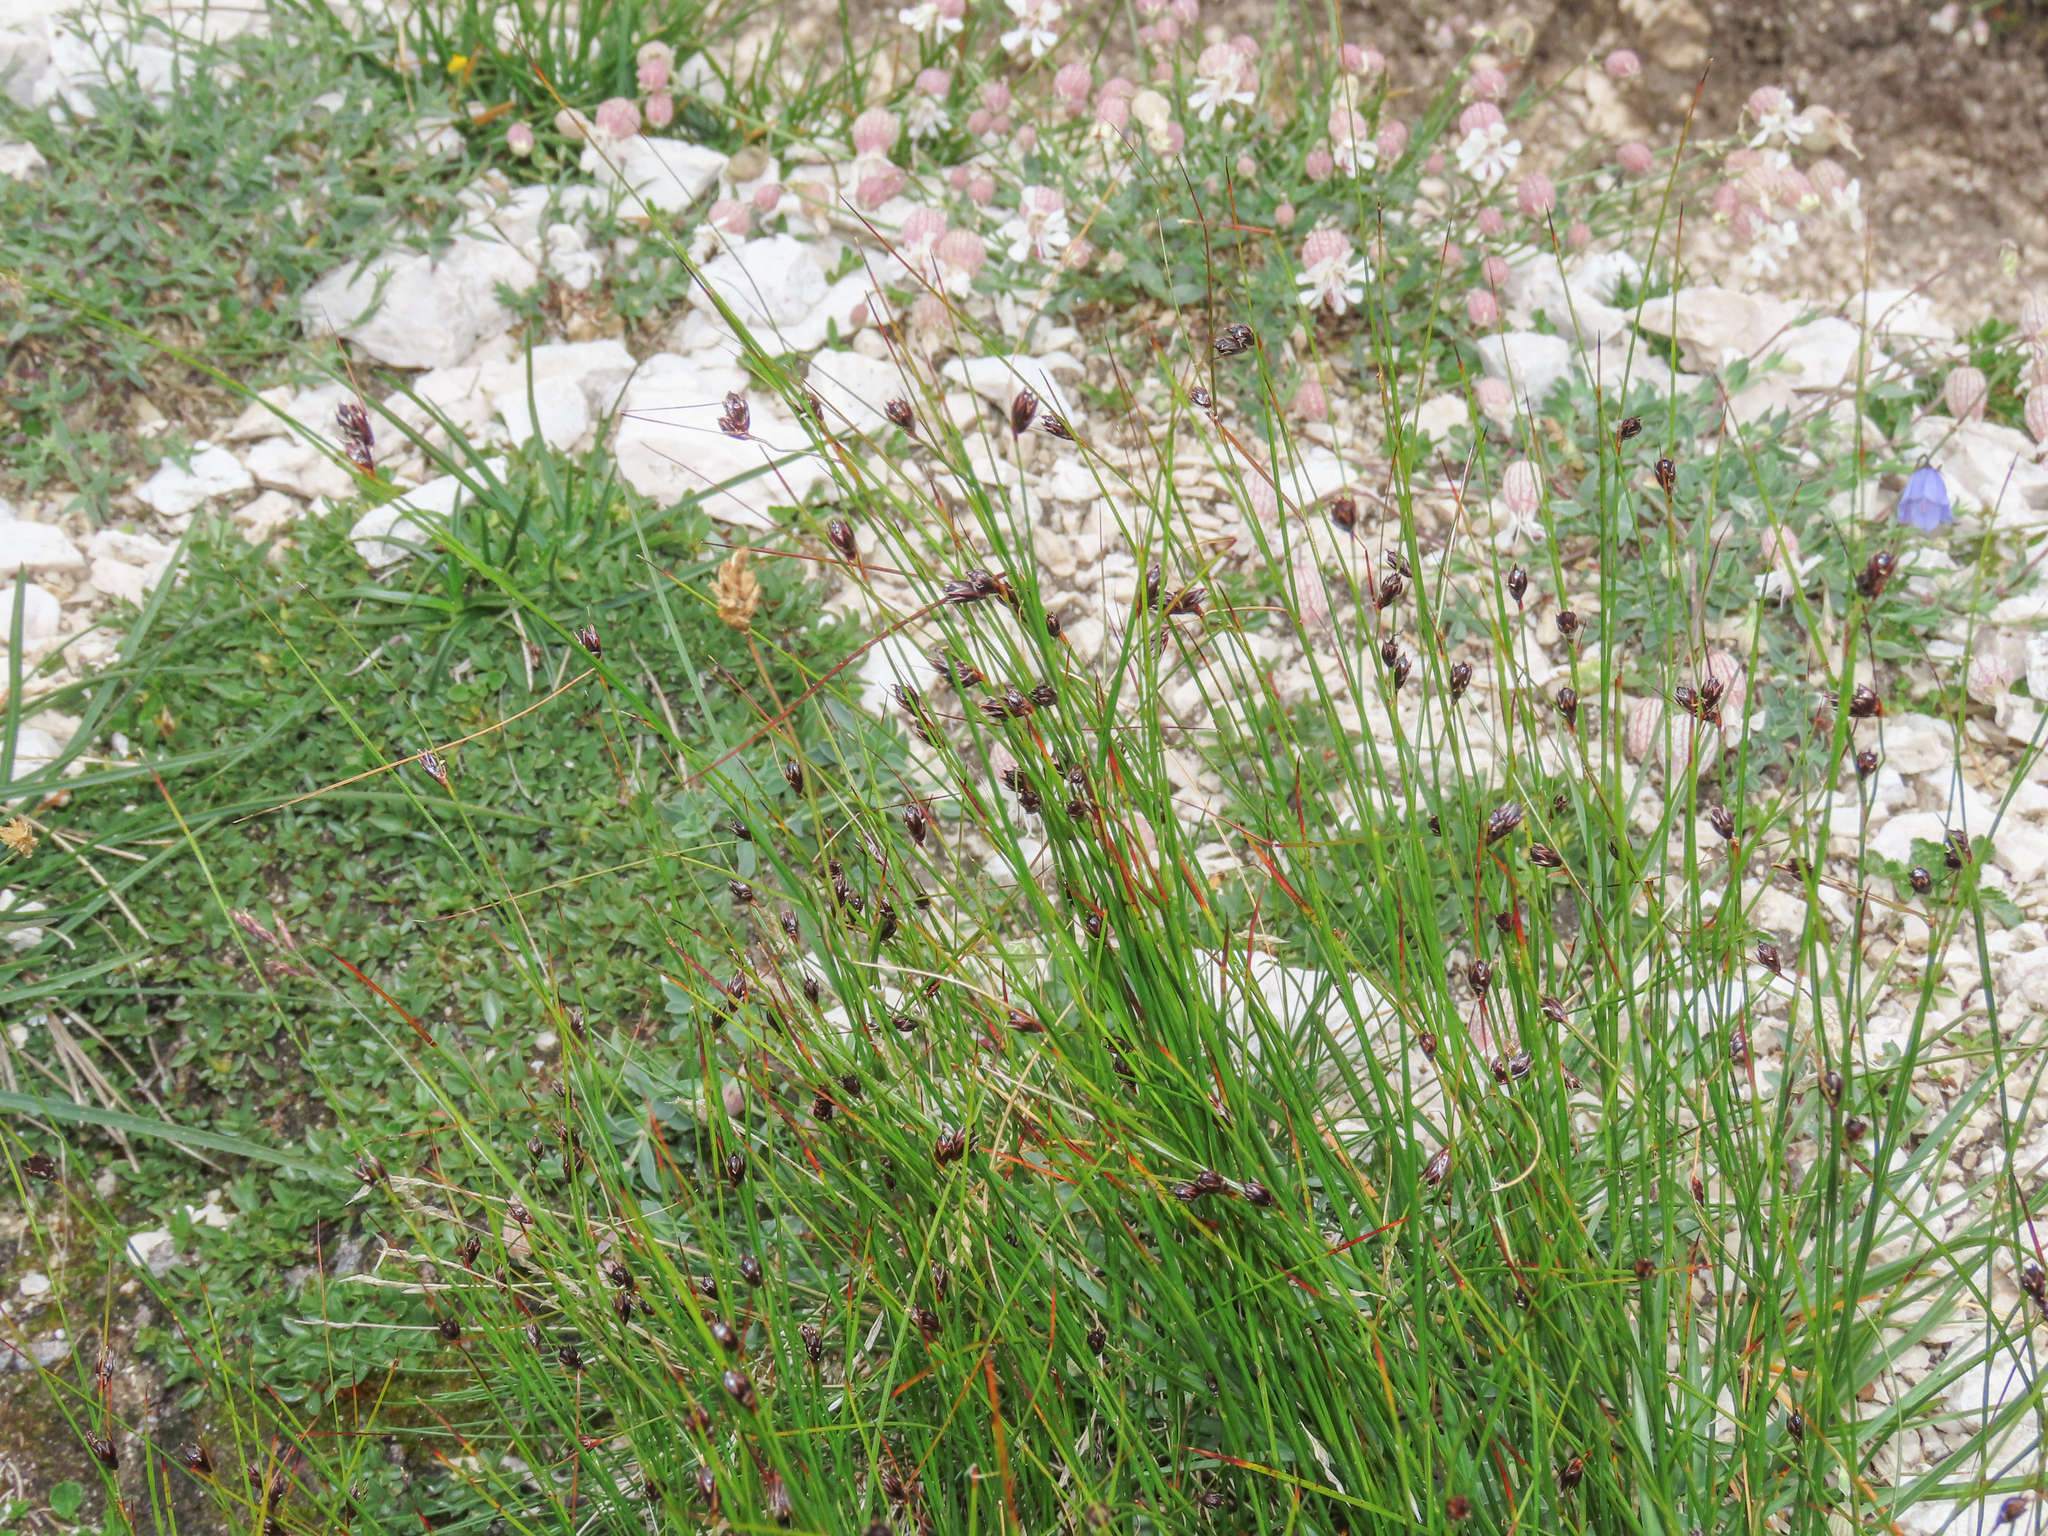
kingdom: Plantae
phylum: Tracheophyta
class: Liliopsida
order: Poales
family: Juncaceae
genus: Oreojuncus
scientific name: Oreojuncus monanthos
